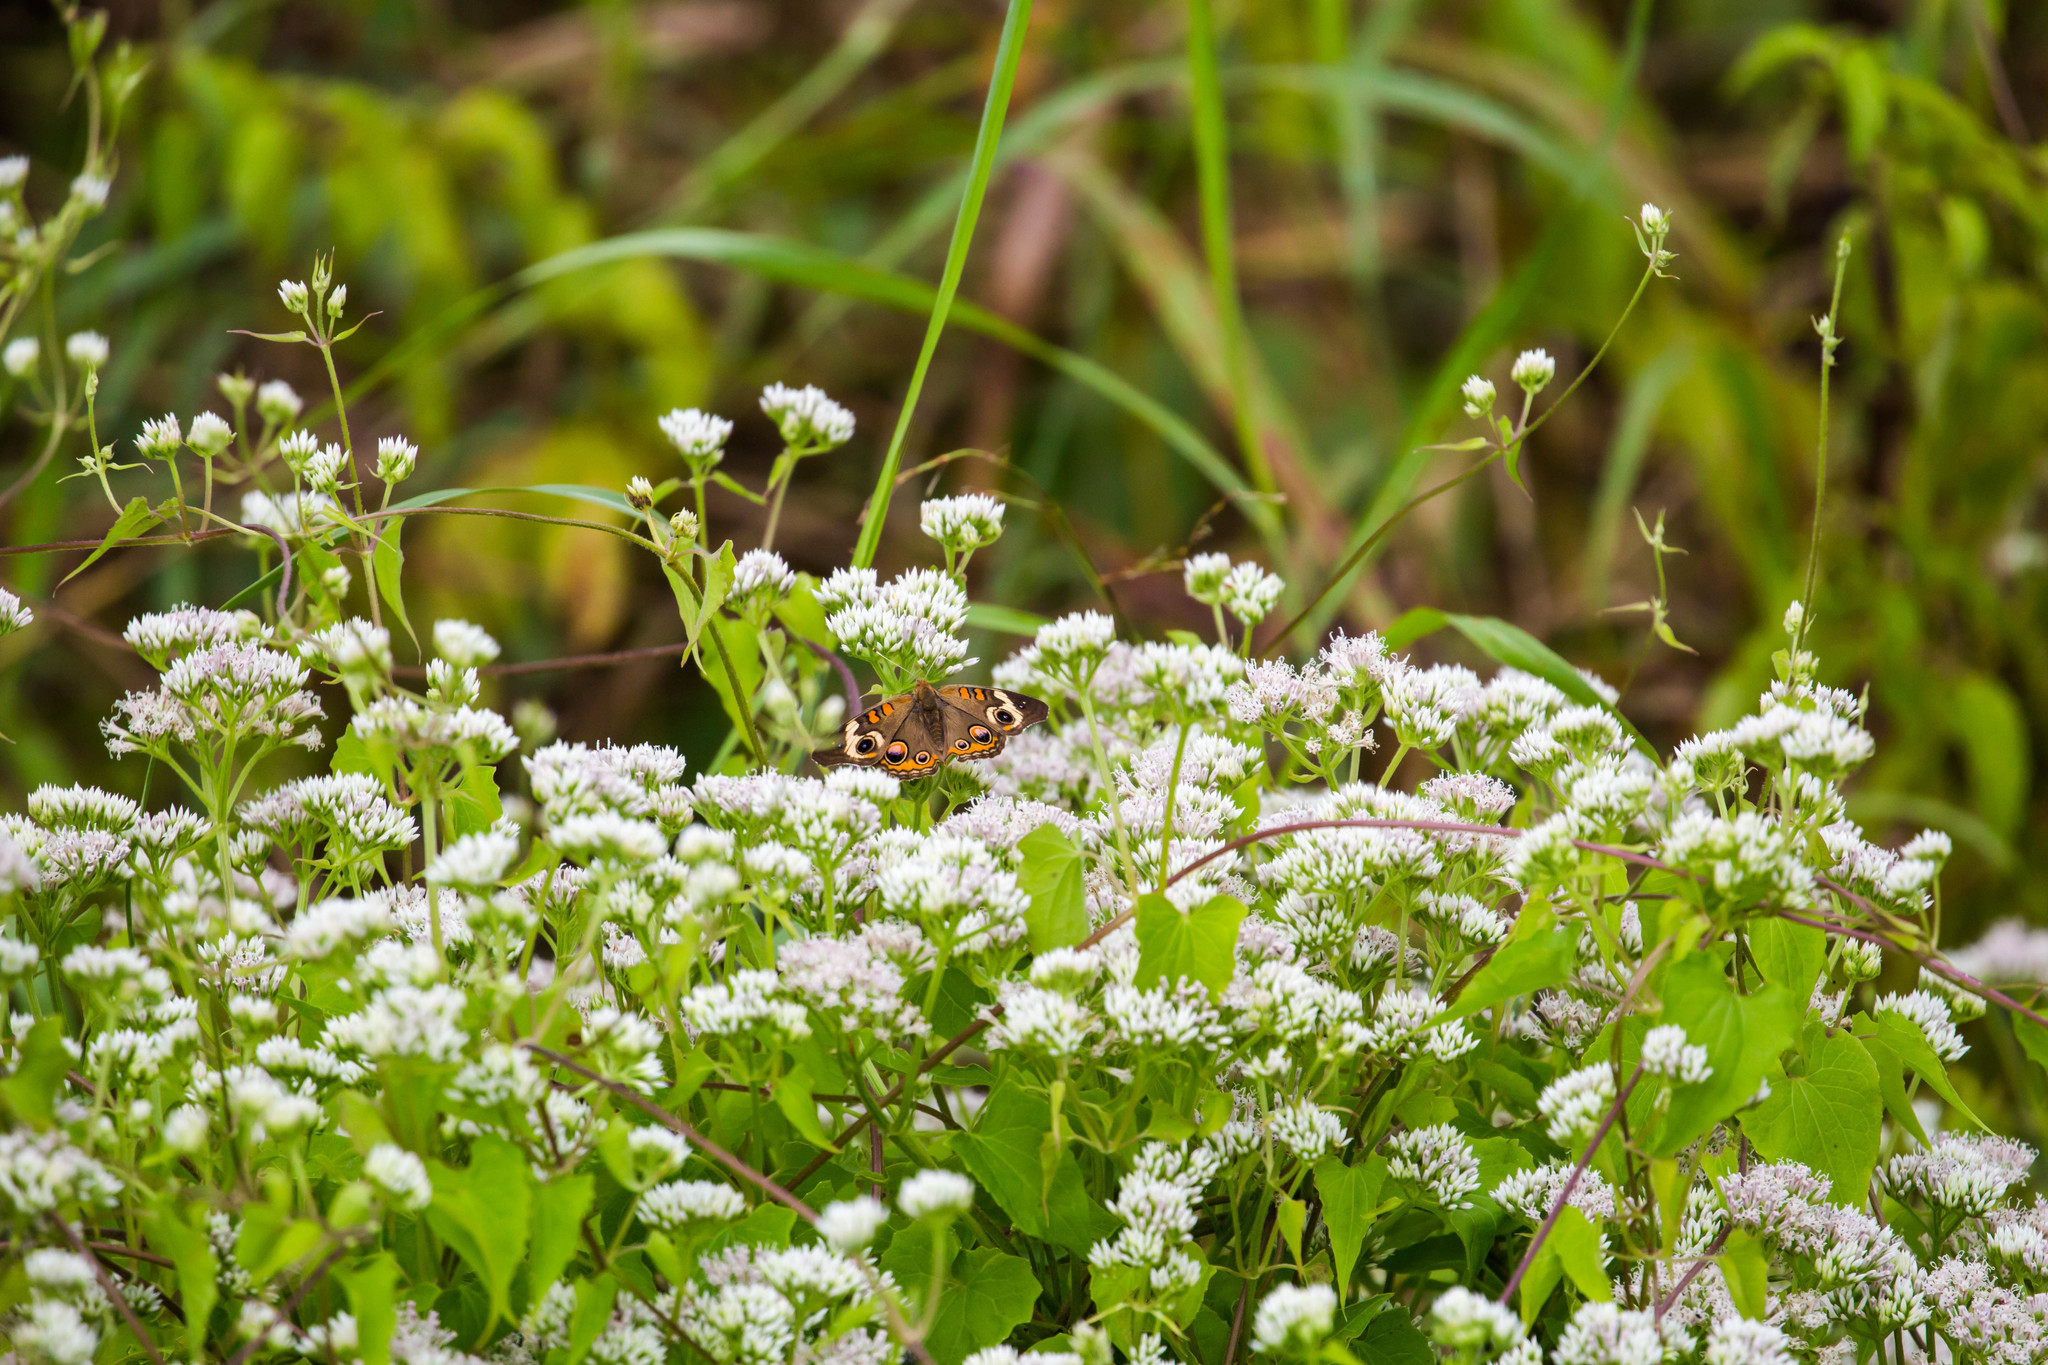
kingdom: Animalia
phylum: Arthropoda
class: Insecta
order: Lepidoptera
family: Nymphalidae
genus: Junonia
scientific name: Junonia coenia
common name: Common buckeye
